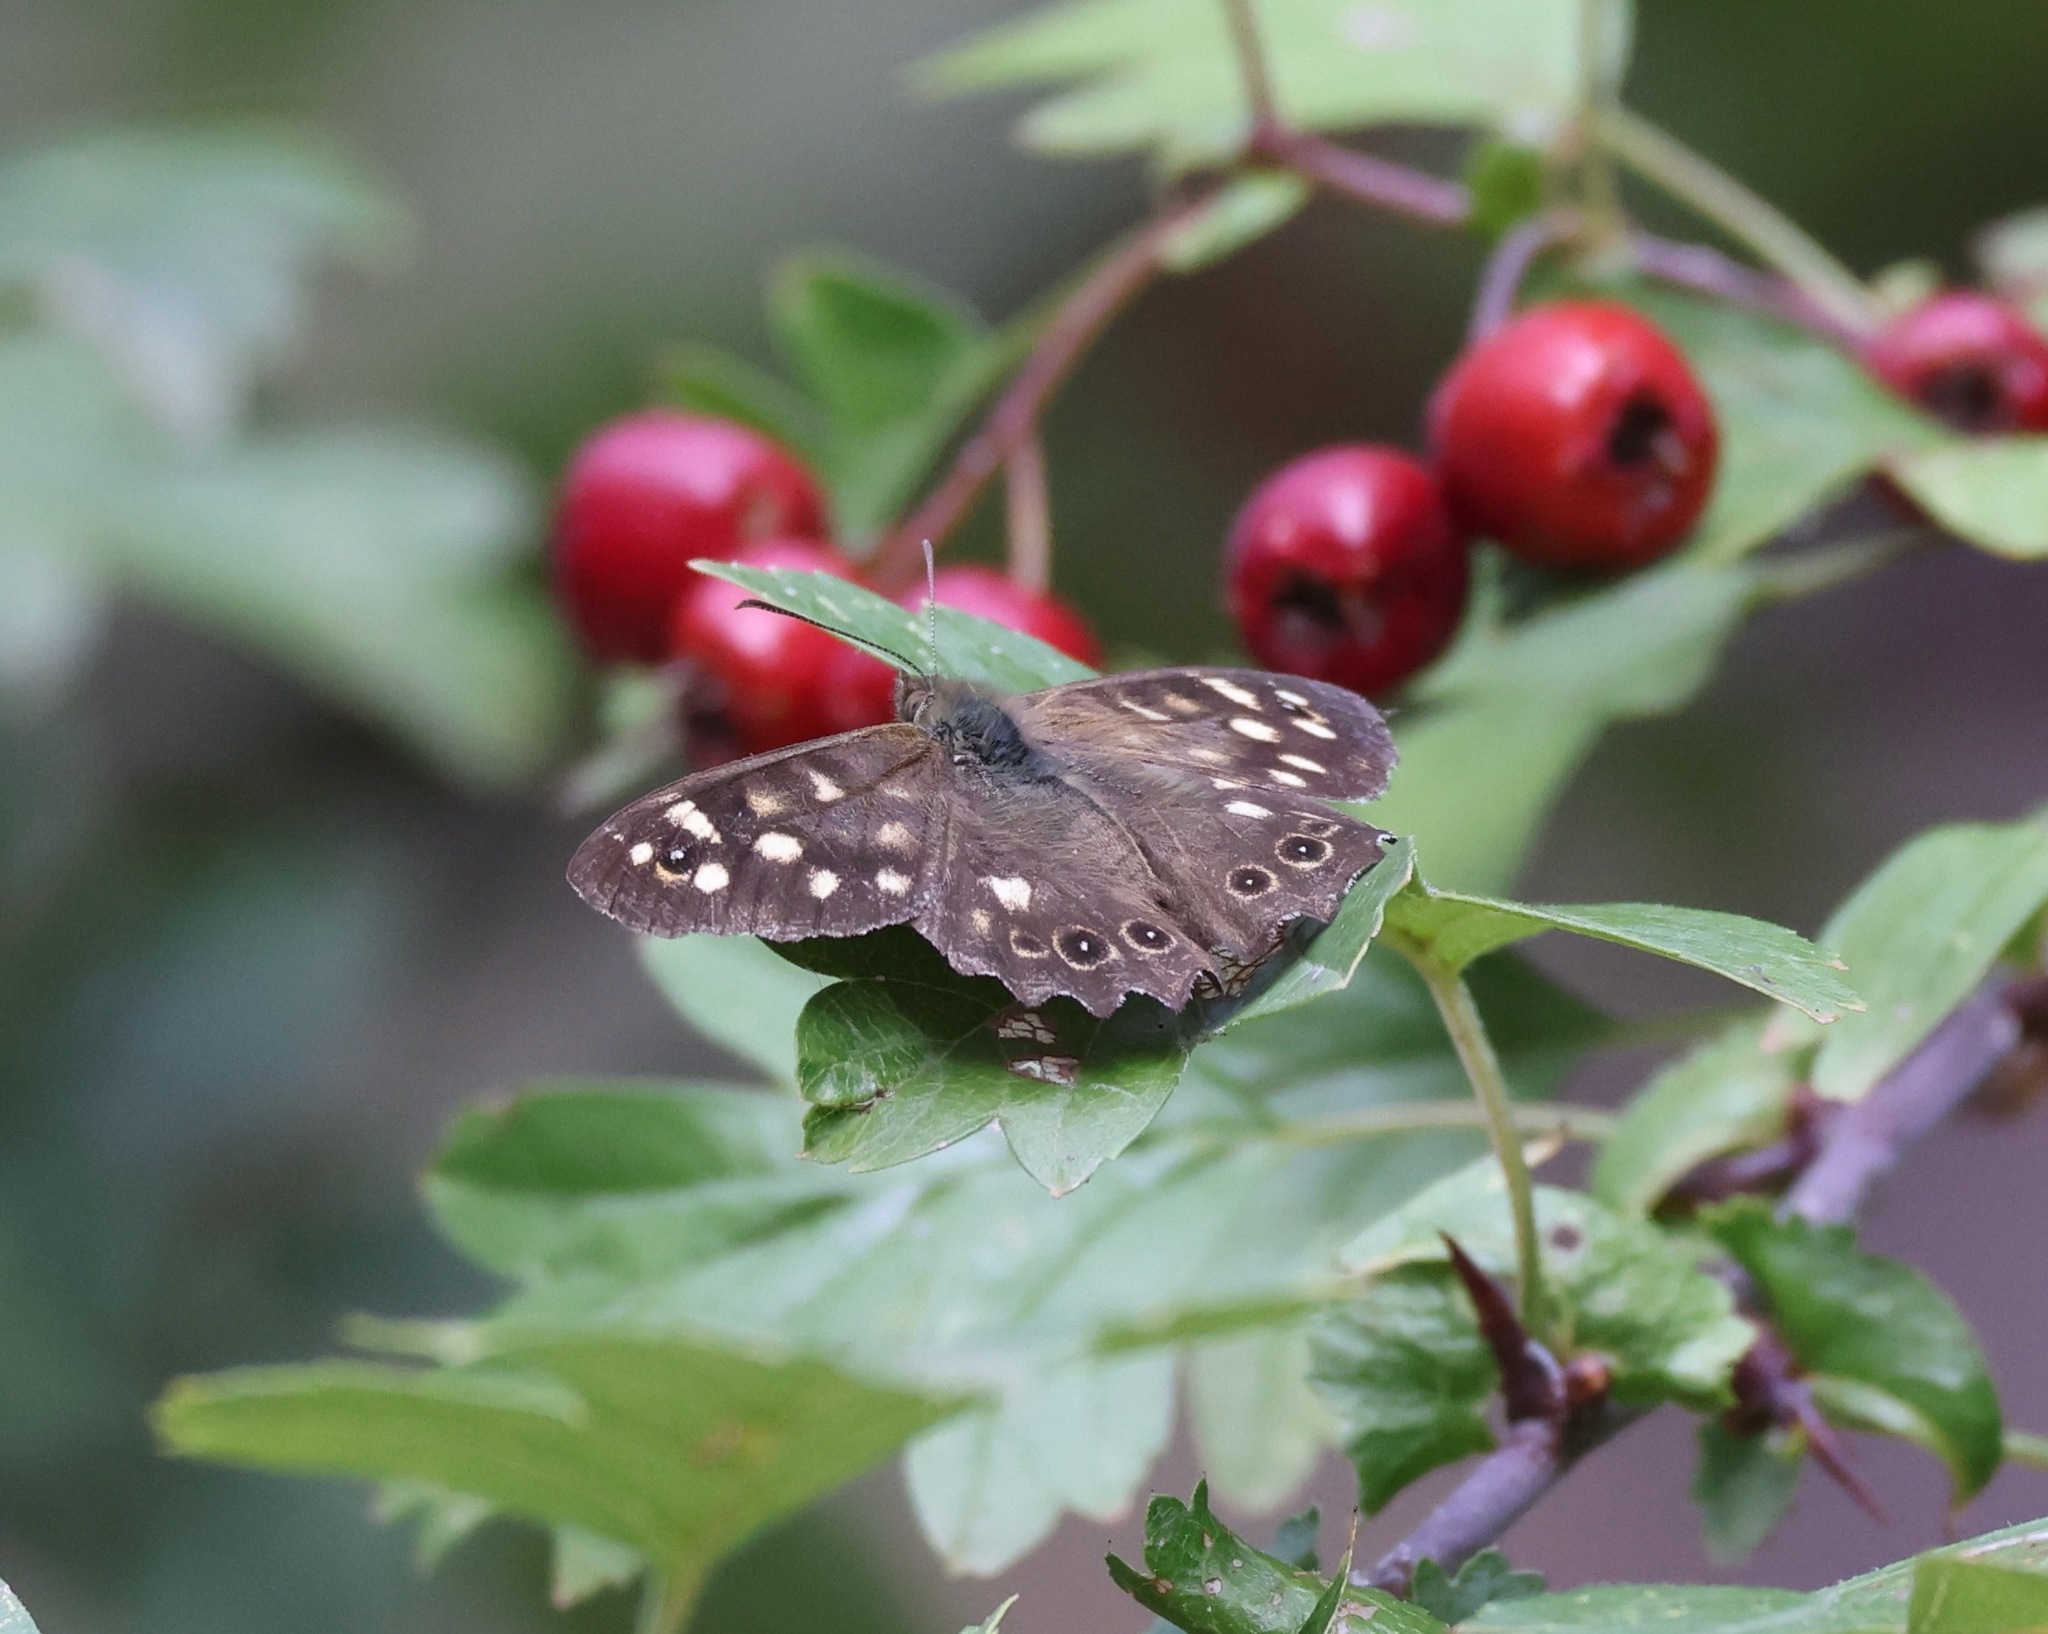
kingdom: Animalia
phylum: Arthropoda
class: Insecta
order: Lepidoptera
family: Nymphalidae
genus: Pararge
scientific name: Pararge aegeria
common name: Speckled wood
